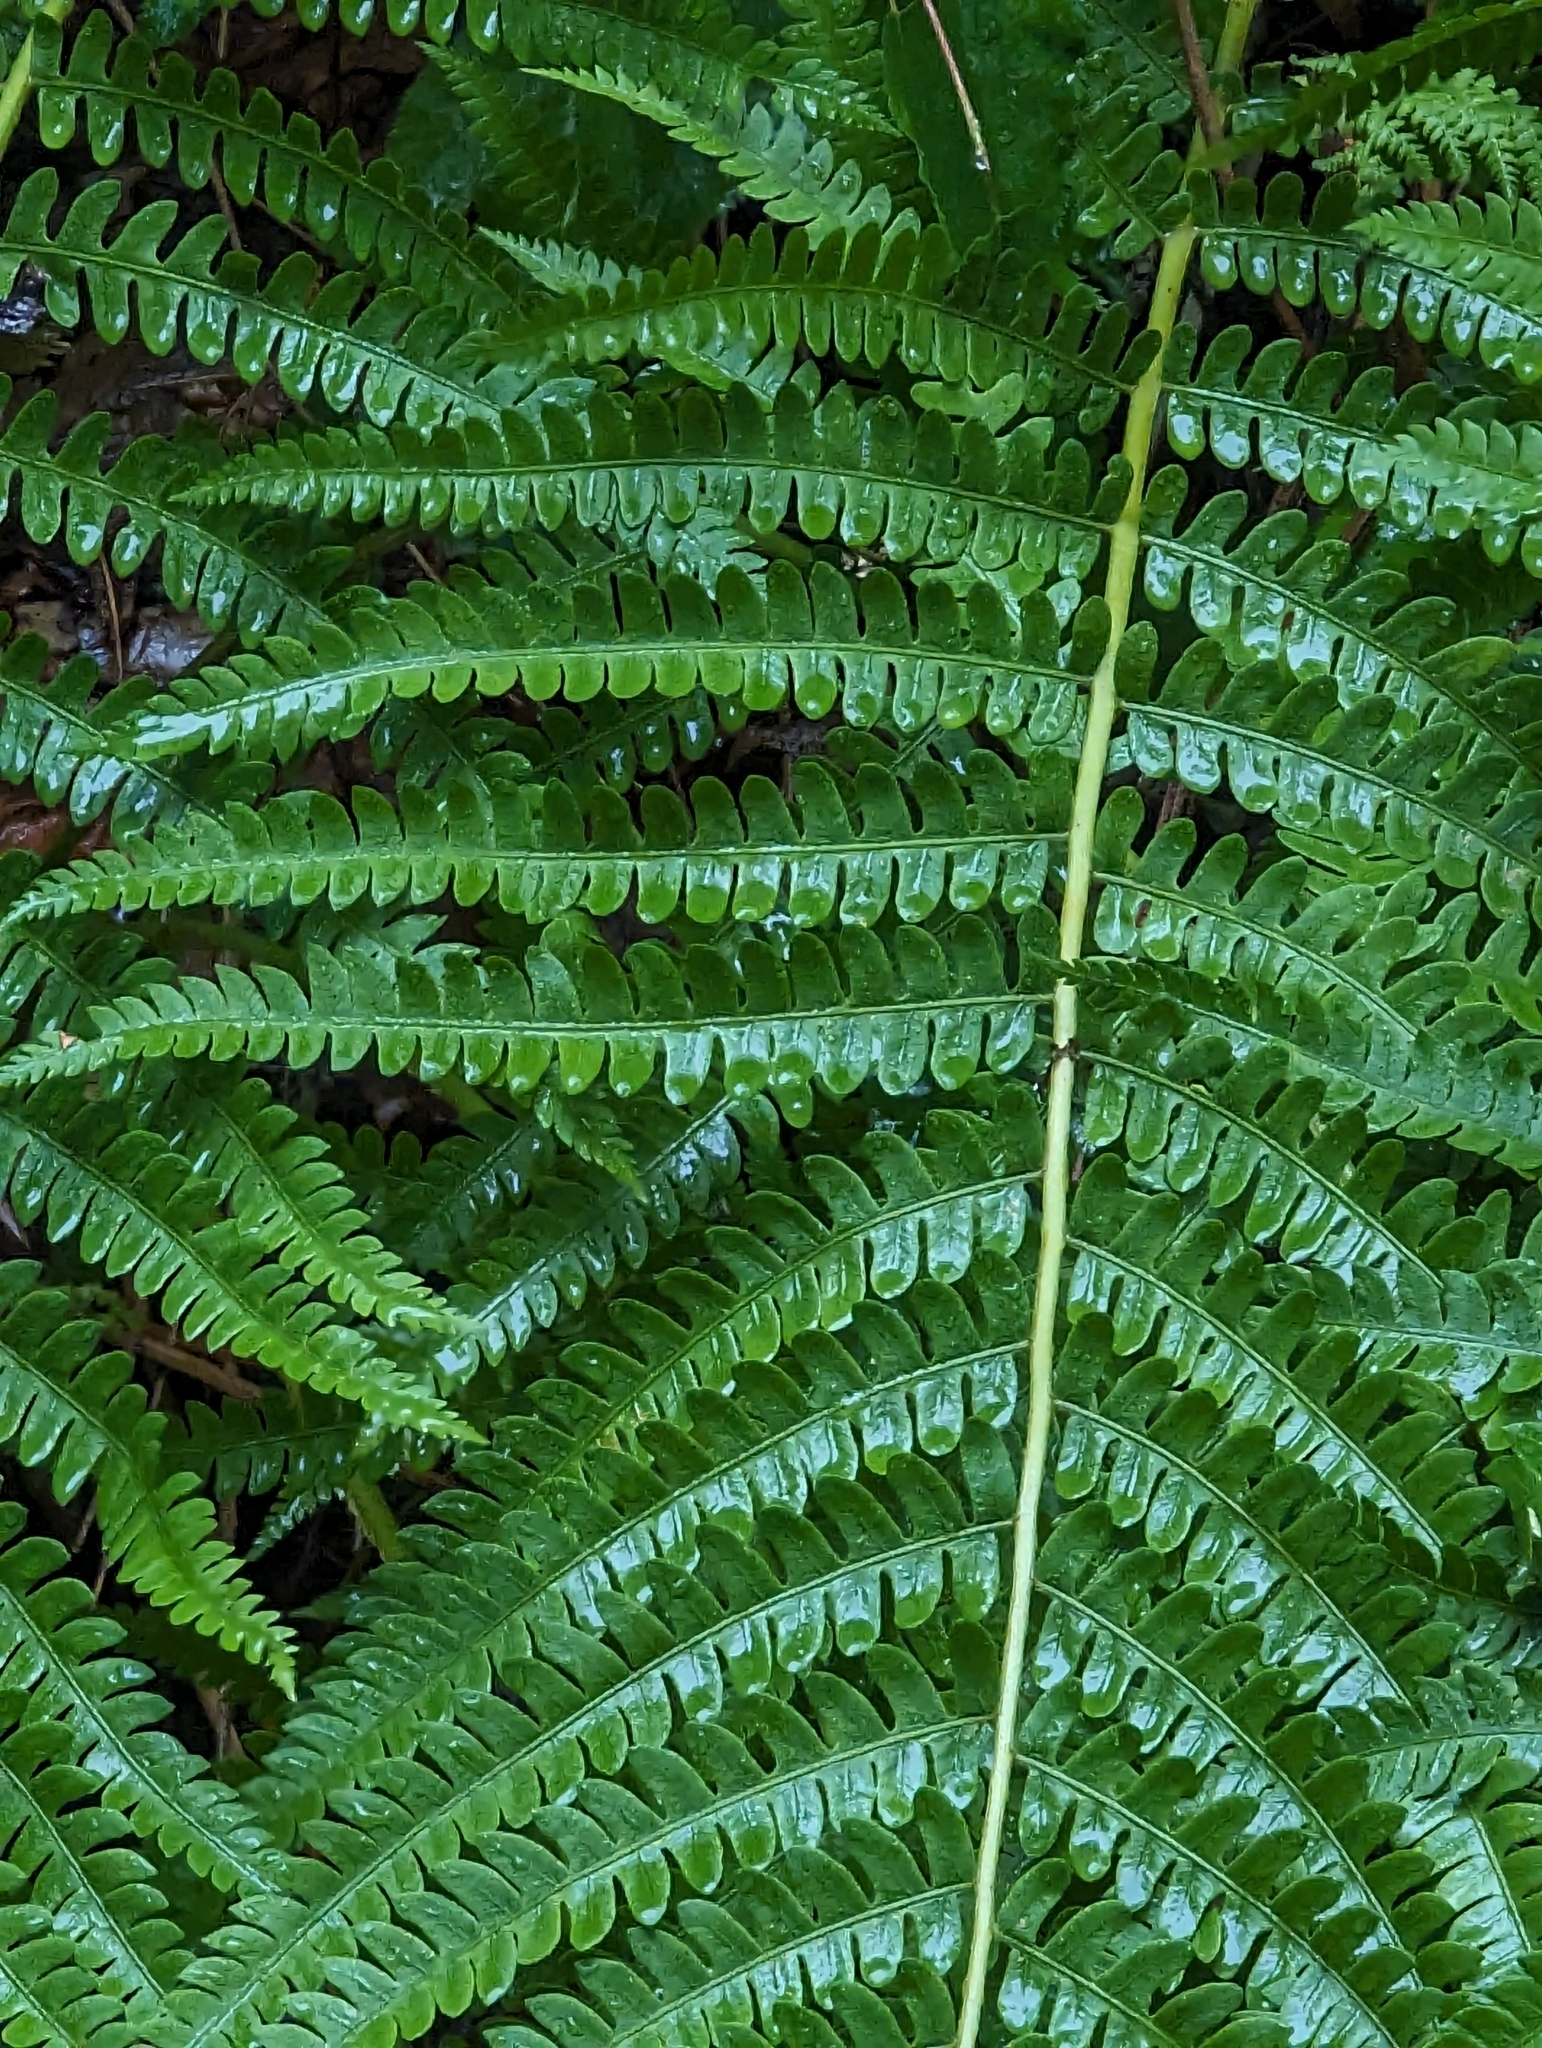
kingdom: Plantae
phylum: Tracheophyta
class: Polypodiopsida
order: Osmundales
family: Osmundaceae
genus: Osmundastrum
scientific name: Osmundastrum cinnamomeum
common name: Cinnamon fern
